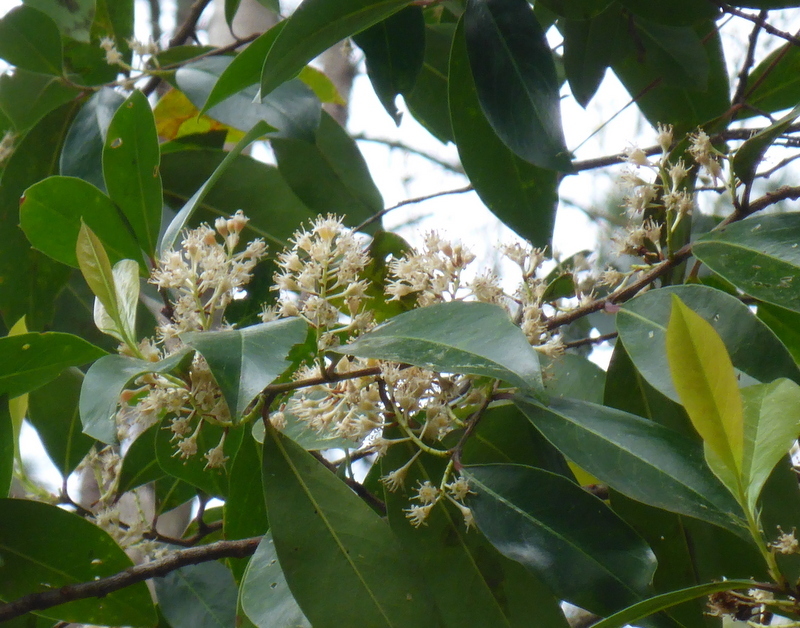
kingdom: Plantae
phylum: Tracheophyta
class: Magnoliopsida
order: Rosales
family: Rosaceae
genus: Prunus
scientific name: Prunus caroliniana
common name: Carolina laurel cherry
